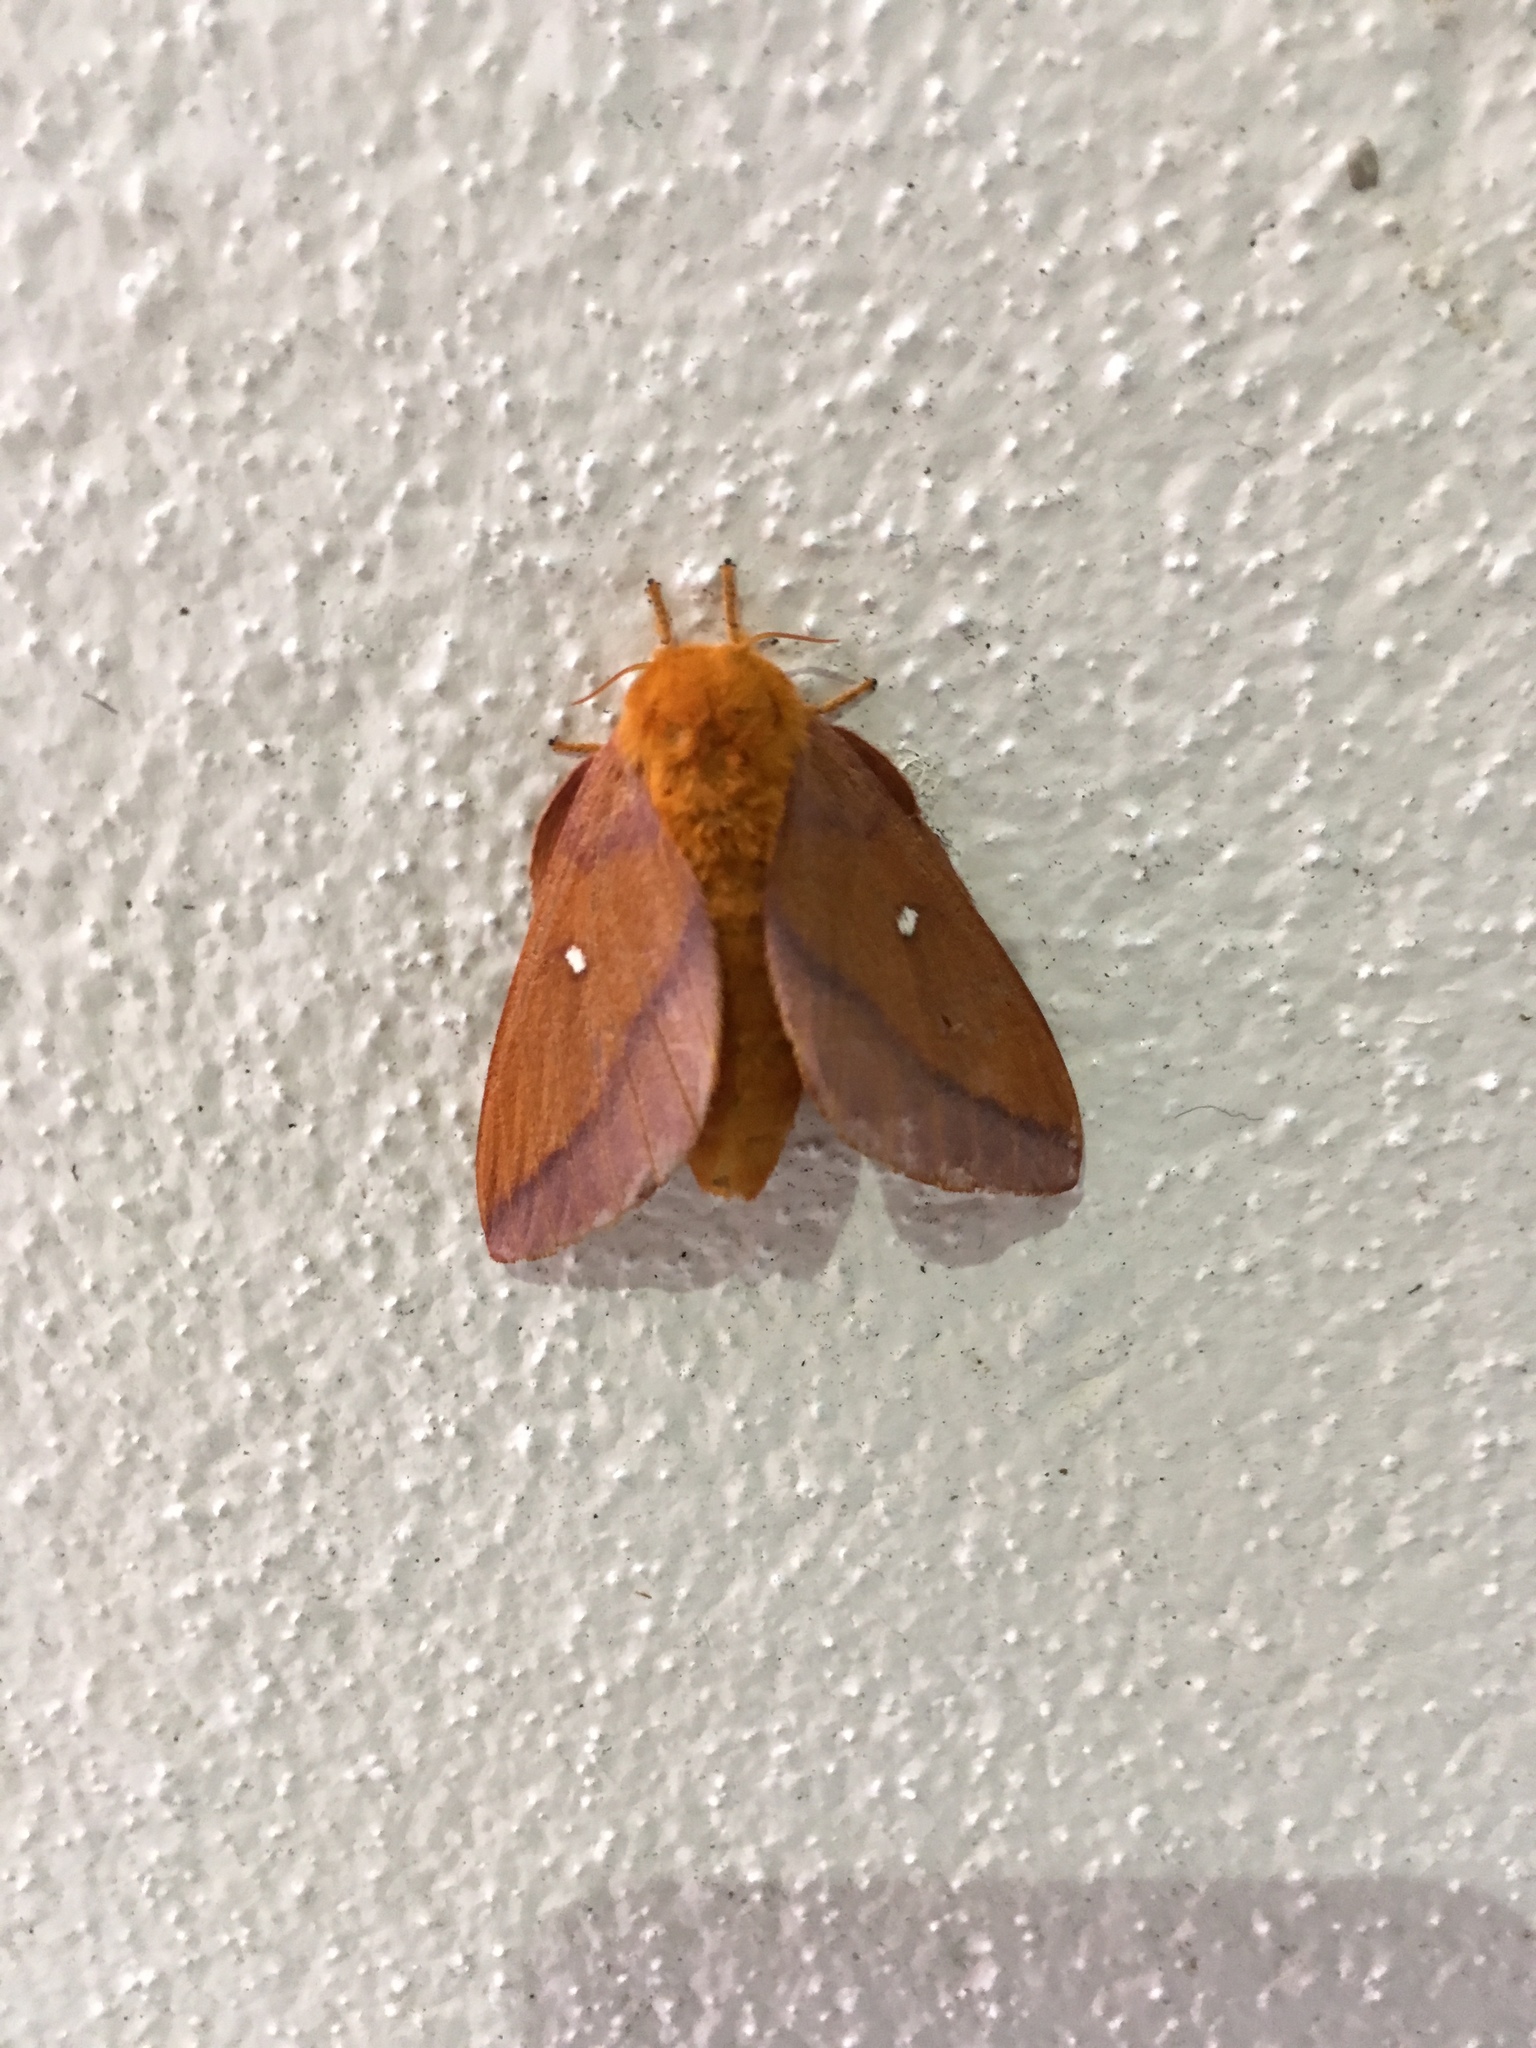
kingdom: Animalia
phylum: Arthropoda
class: Insecta
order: Lepidoptera
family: Saturniidae
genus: Anisota
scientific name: Anisota virginiensis
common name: Pink striped oakworm moth
